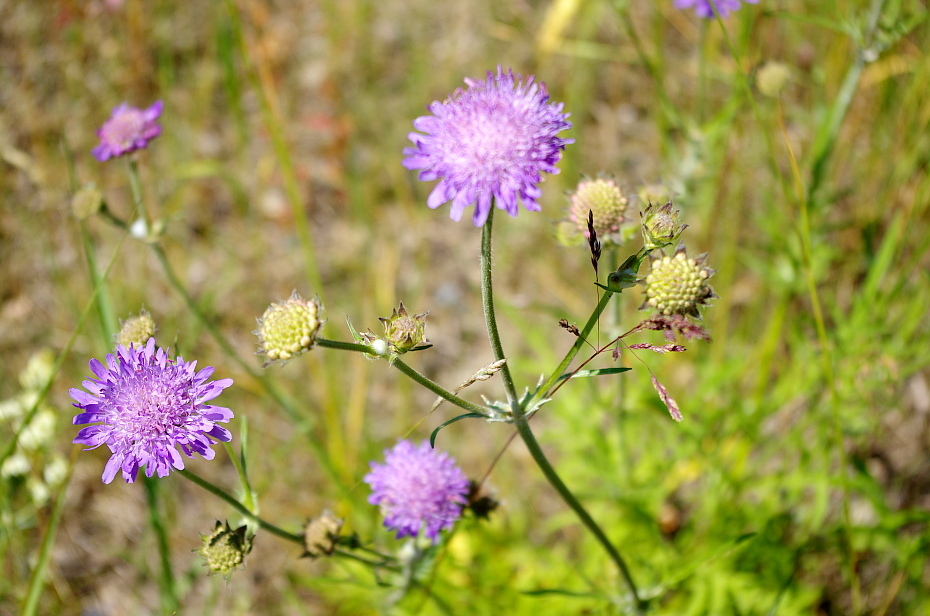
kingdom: Plantae
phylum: Tracheophyta
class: Magnoliopsida
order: Dipsacales
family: Caprifoliaceae
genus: Knautia
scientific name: Knautia arvensis
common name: Field scabiosa
